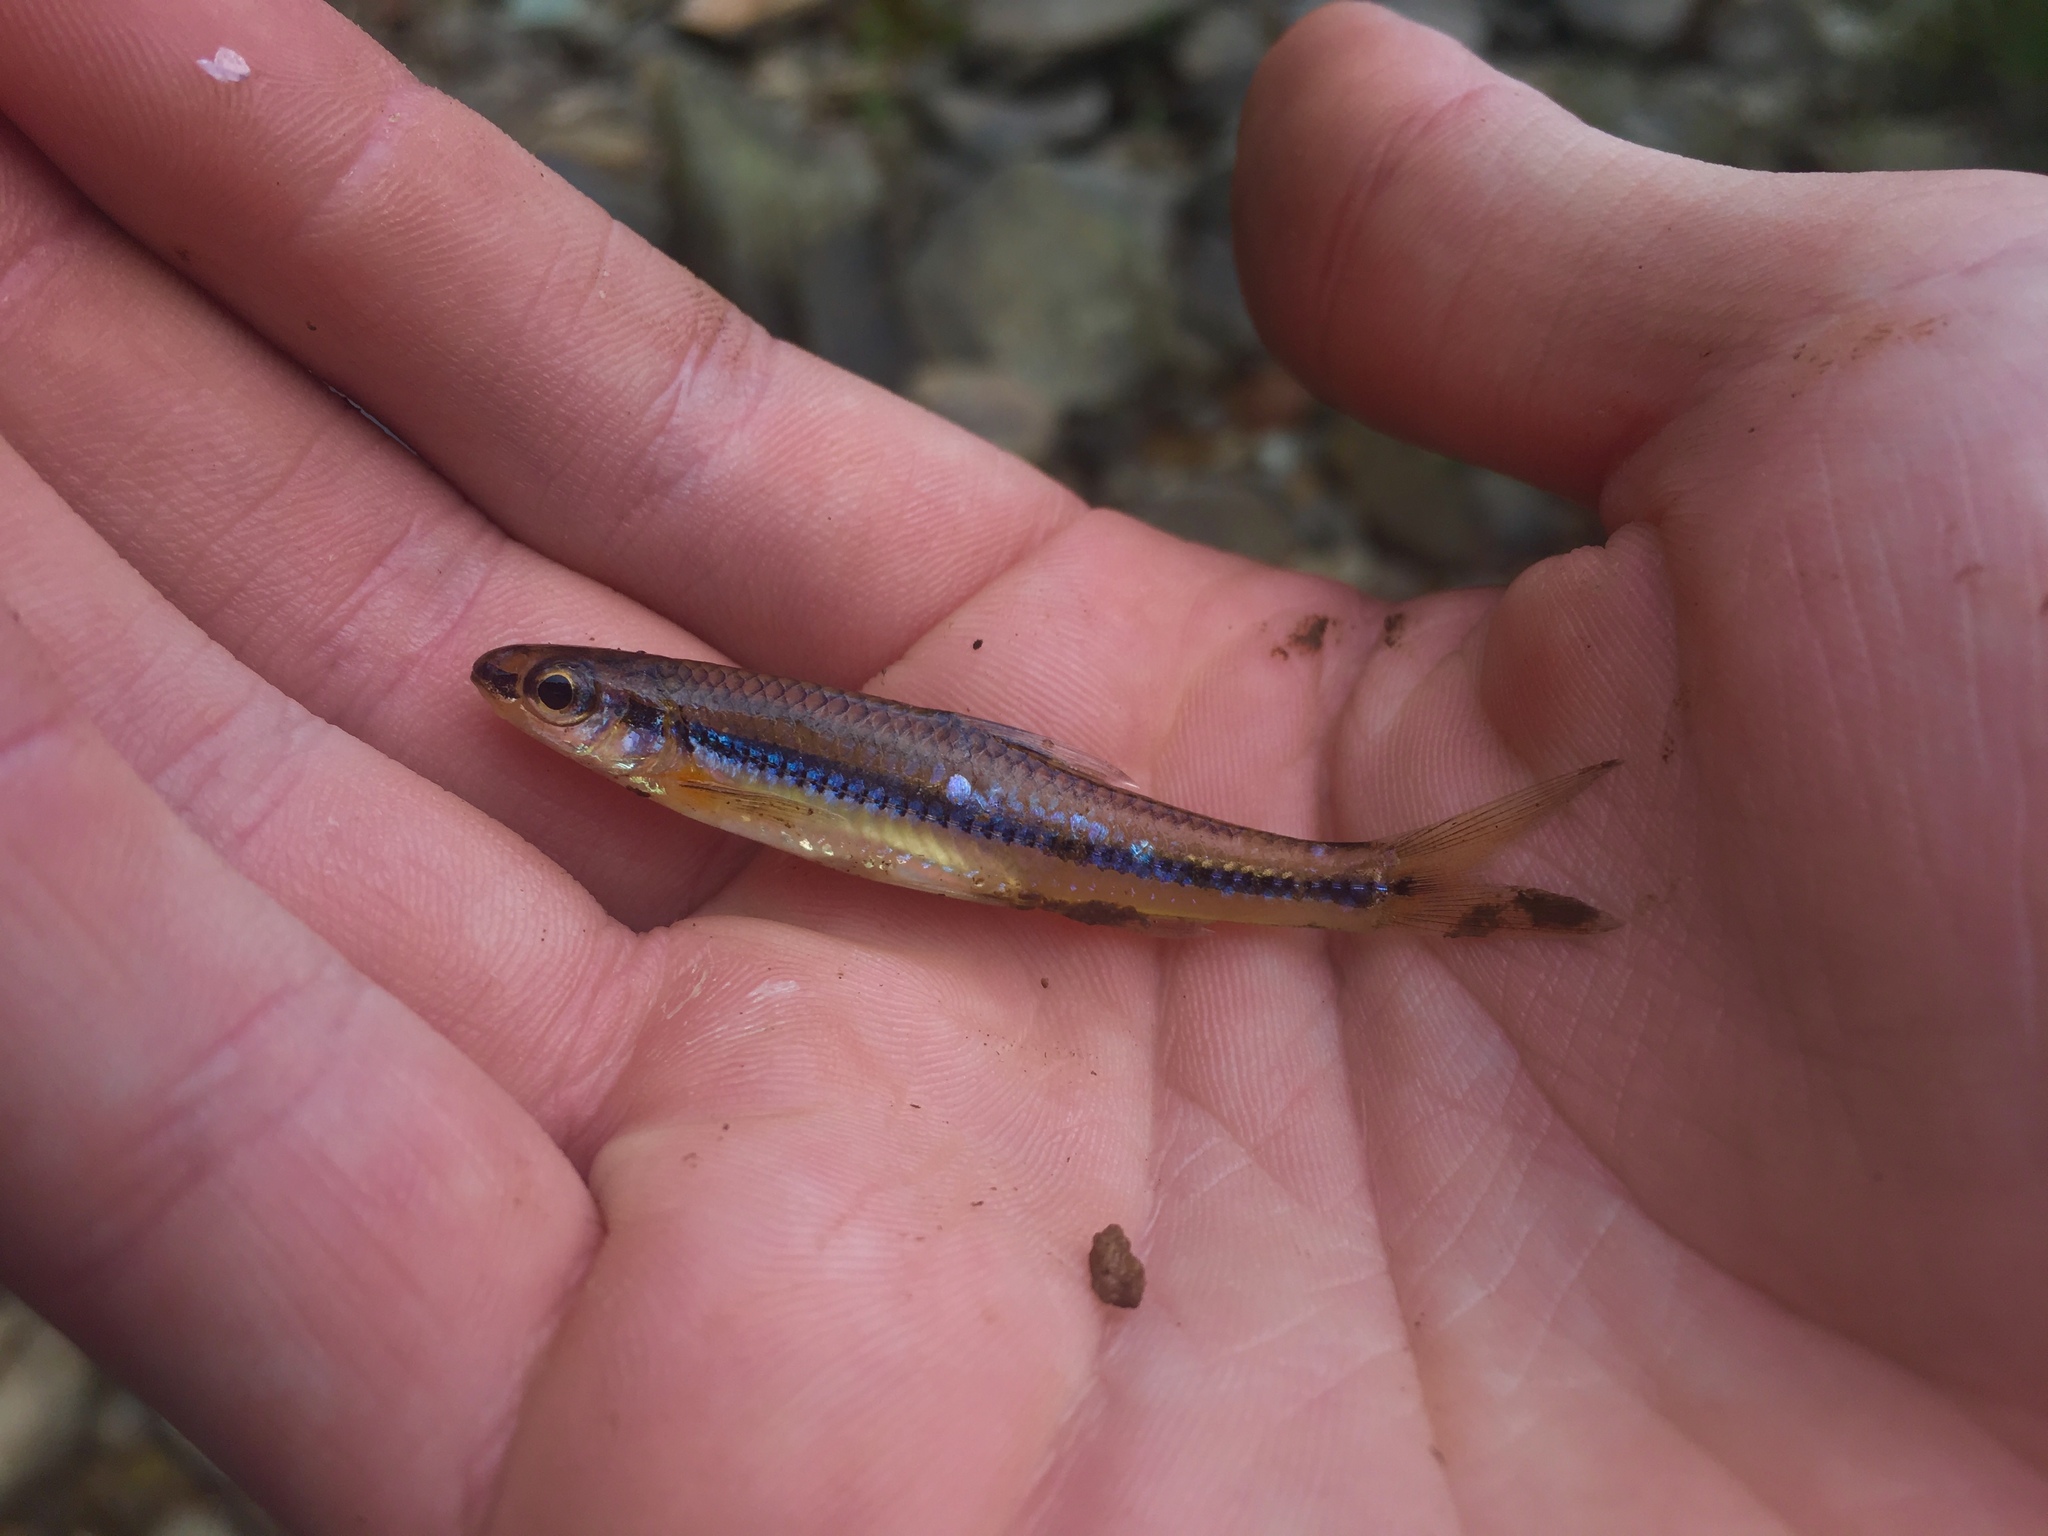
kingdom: Animalia
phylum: Chordata
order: Cypriniformes
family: Cyprinidae
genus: Notropis
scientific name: Notropis
